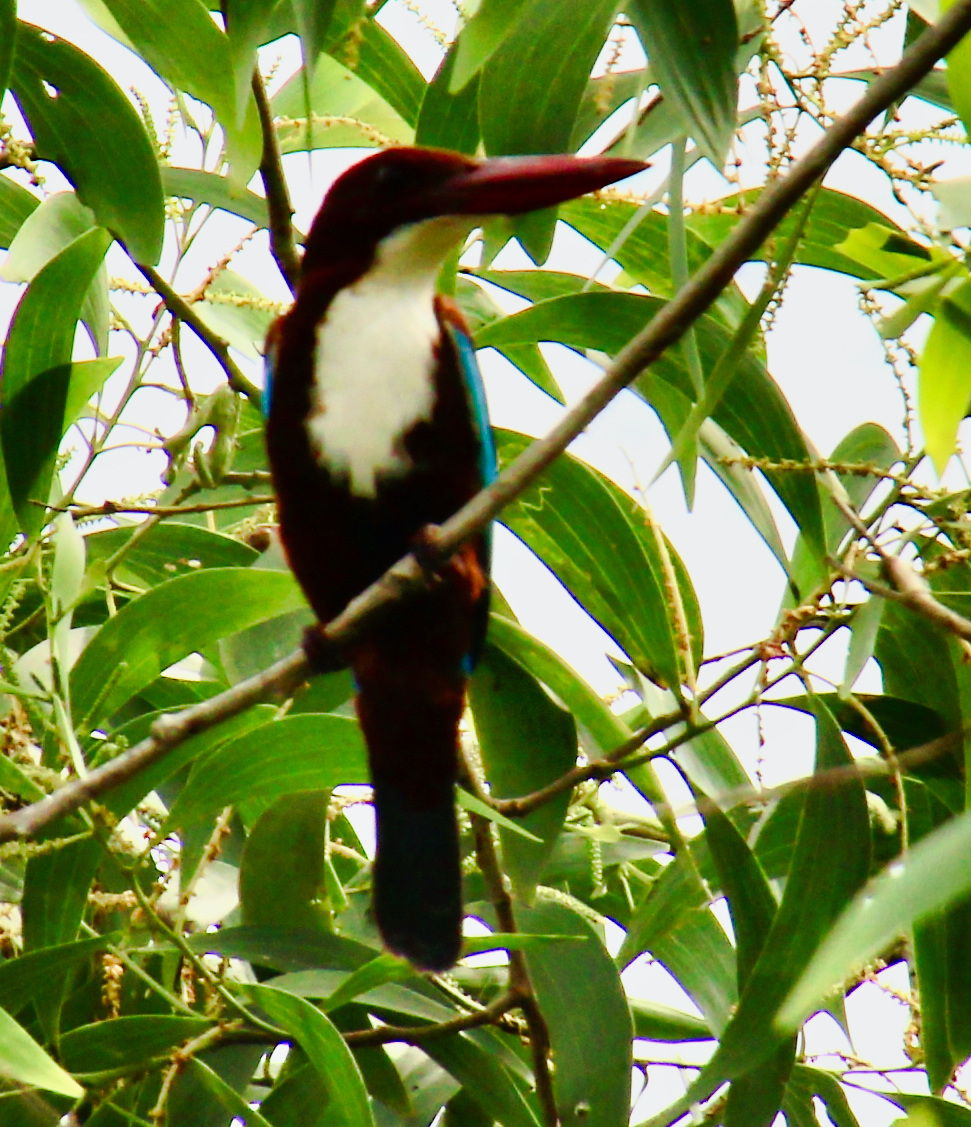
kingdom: Animalia
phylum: Chordata
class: Aves
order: Coraciiformes
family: Alcedinidae
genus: Halcyon
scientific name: Halcyon smyrnensis
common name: White-throated kingfisher
